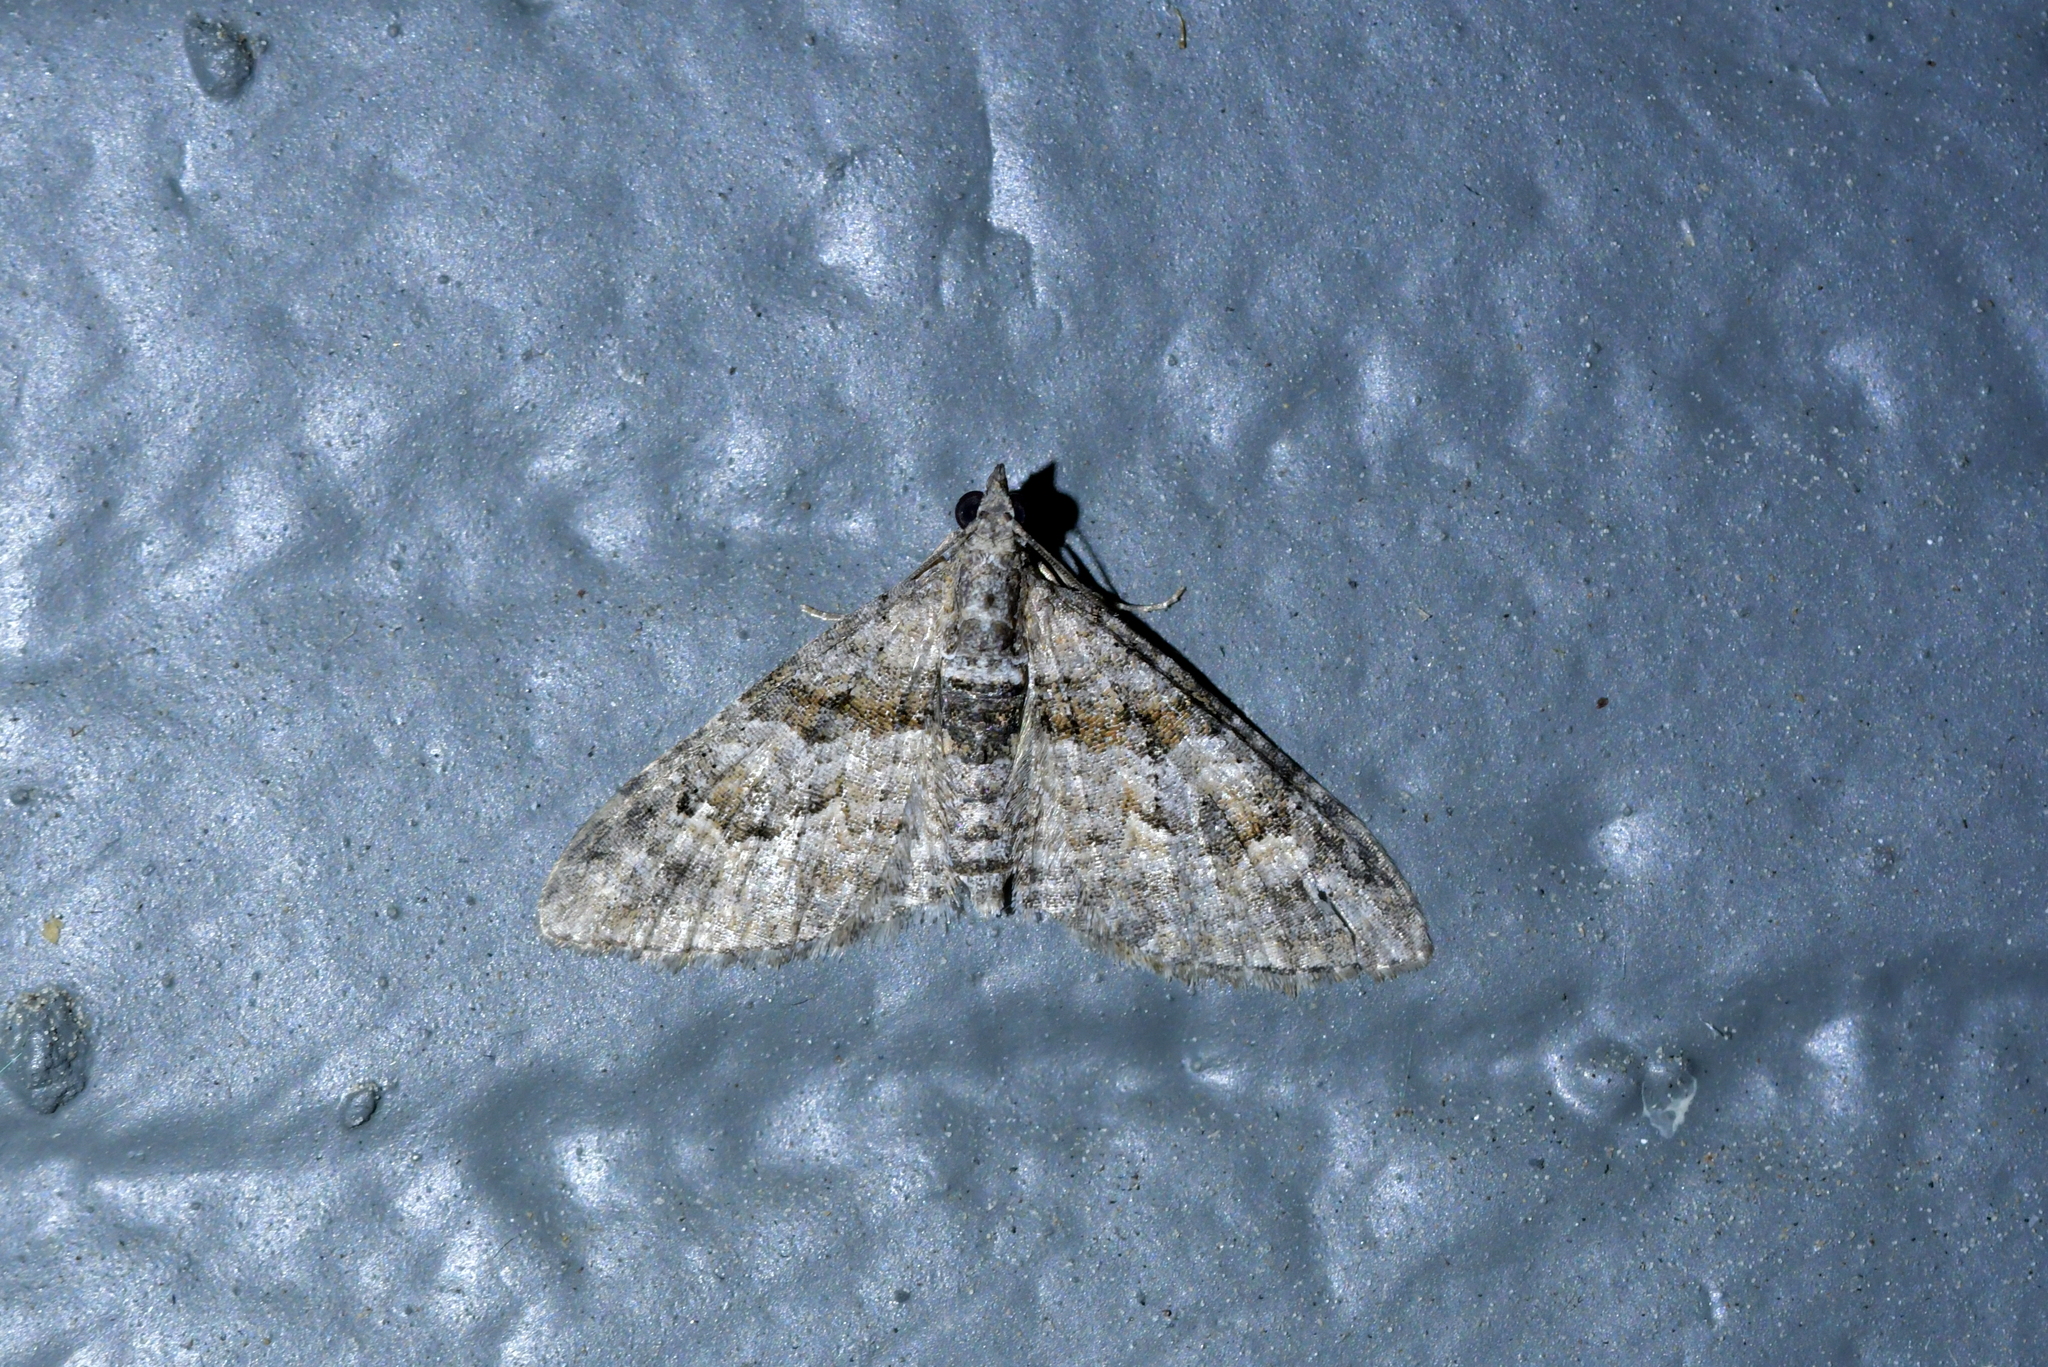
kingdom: Animalia
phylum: Arthropoda
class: Insecta
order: Lepidoptera
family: Geometridae
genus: Phrissogonus
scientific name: Phrissogonus laticostata
